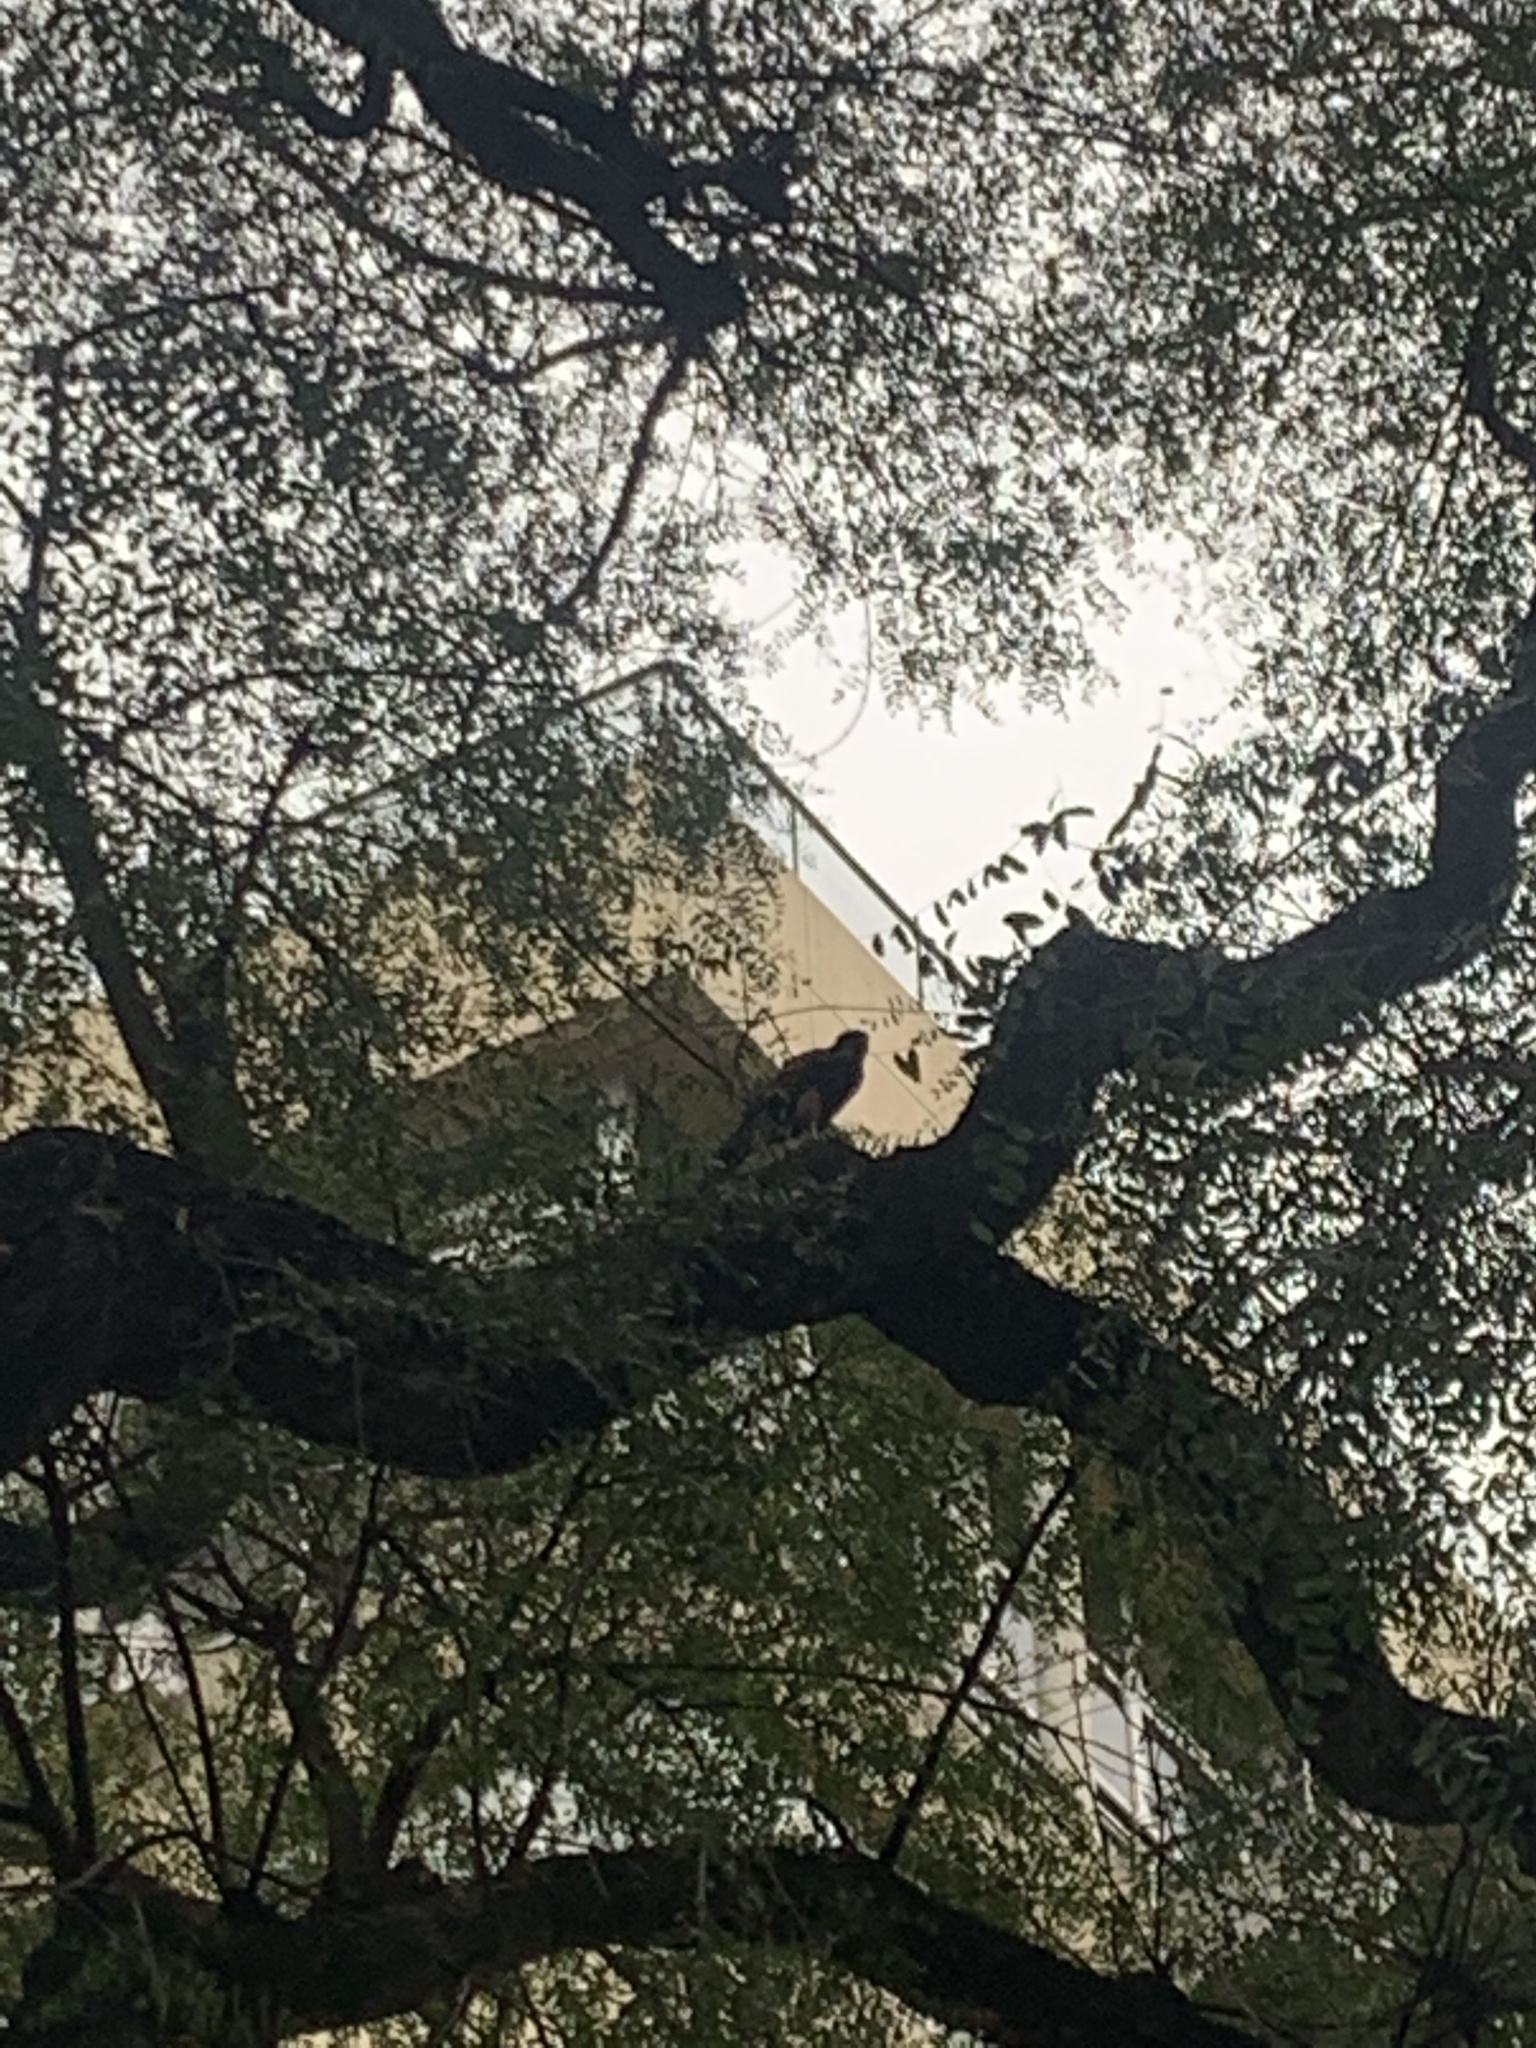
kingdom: Animalia
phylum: Chordata
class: Aves
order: Accipitriformes
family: Accipitridae
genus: Parabuteo
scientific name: Parabuteo unicinctus
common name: Harris's hawk
